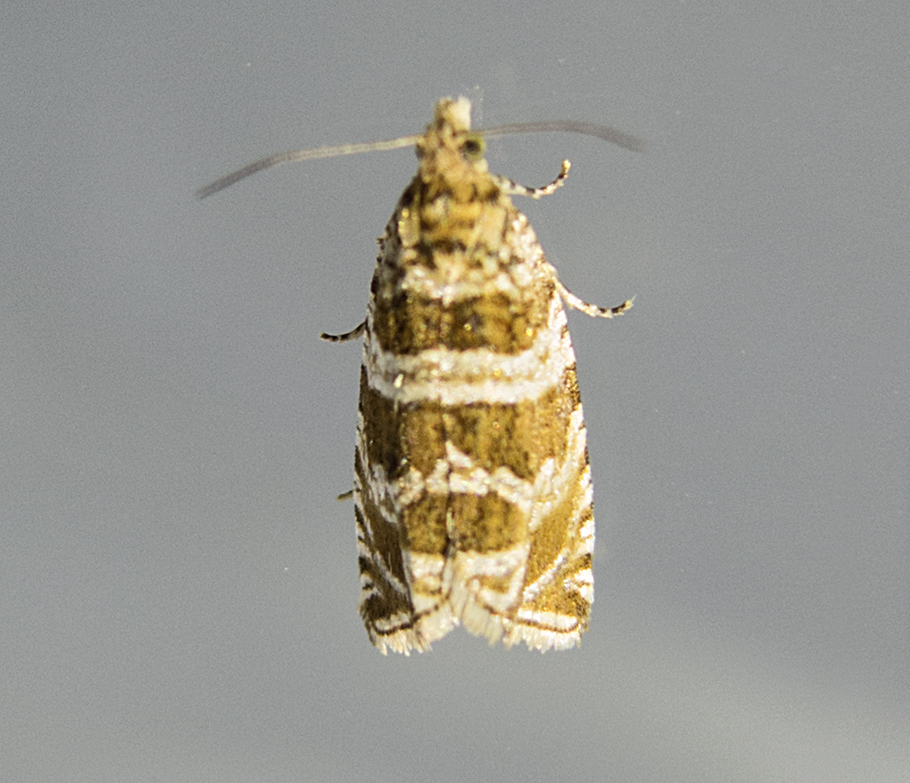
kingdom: Animalia
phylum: Arthropoda
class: Insecta
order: Lepidoptera
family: Tortricidae
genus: Syricoris
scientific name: Syricoris rivulana
